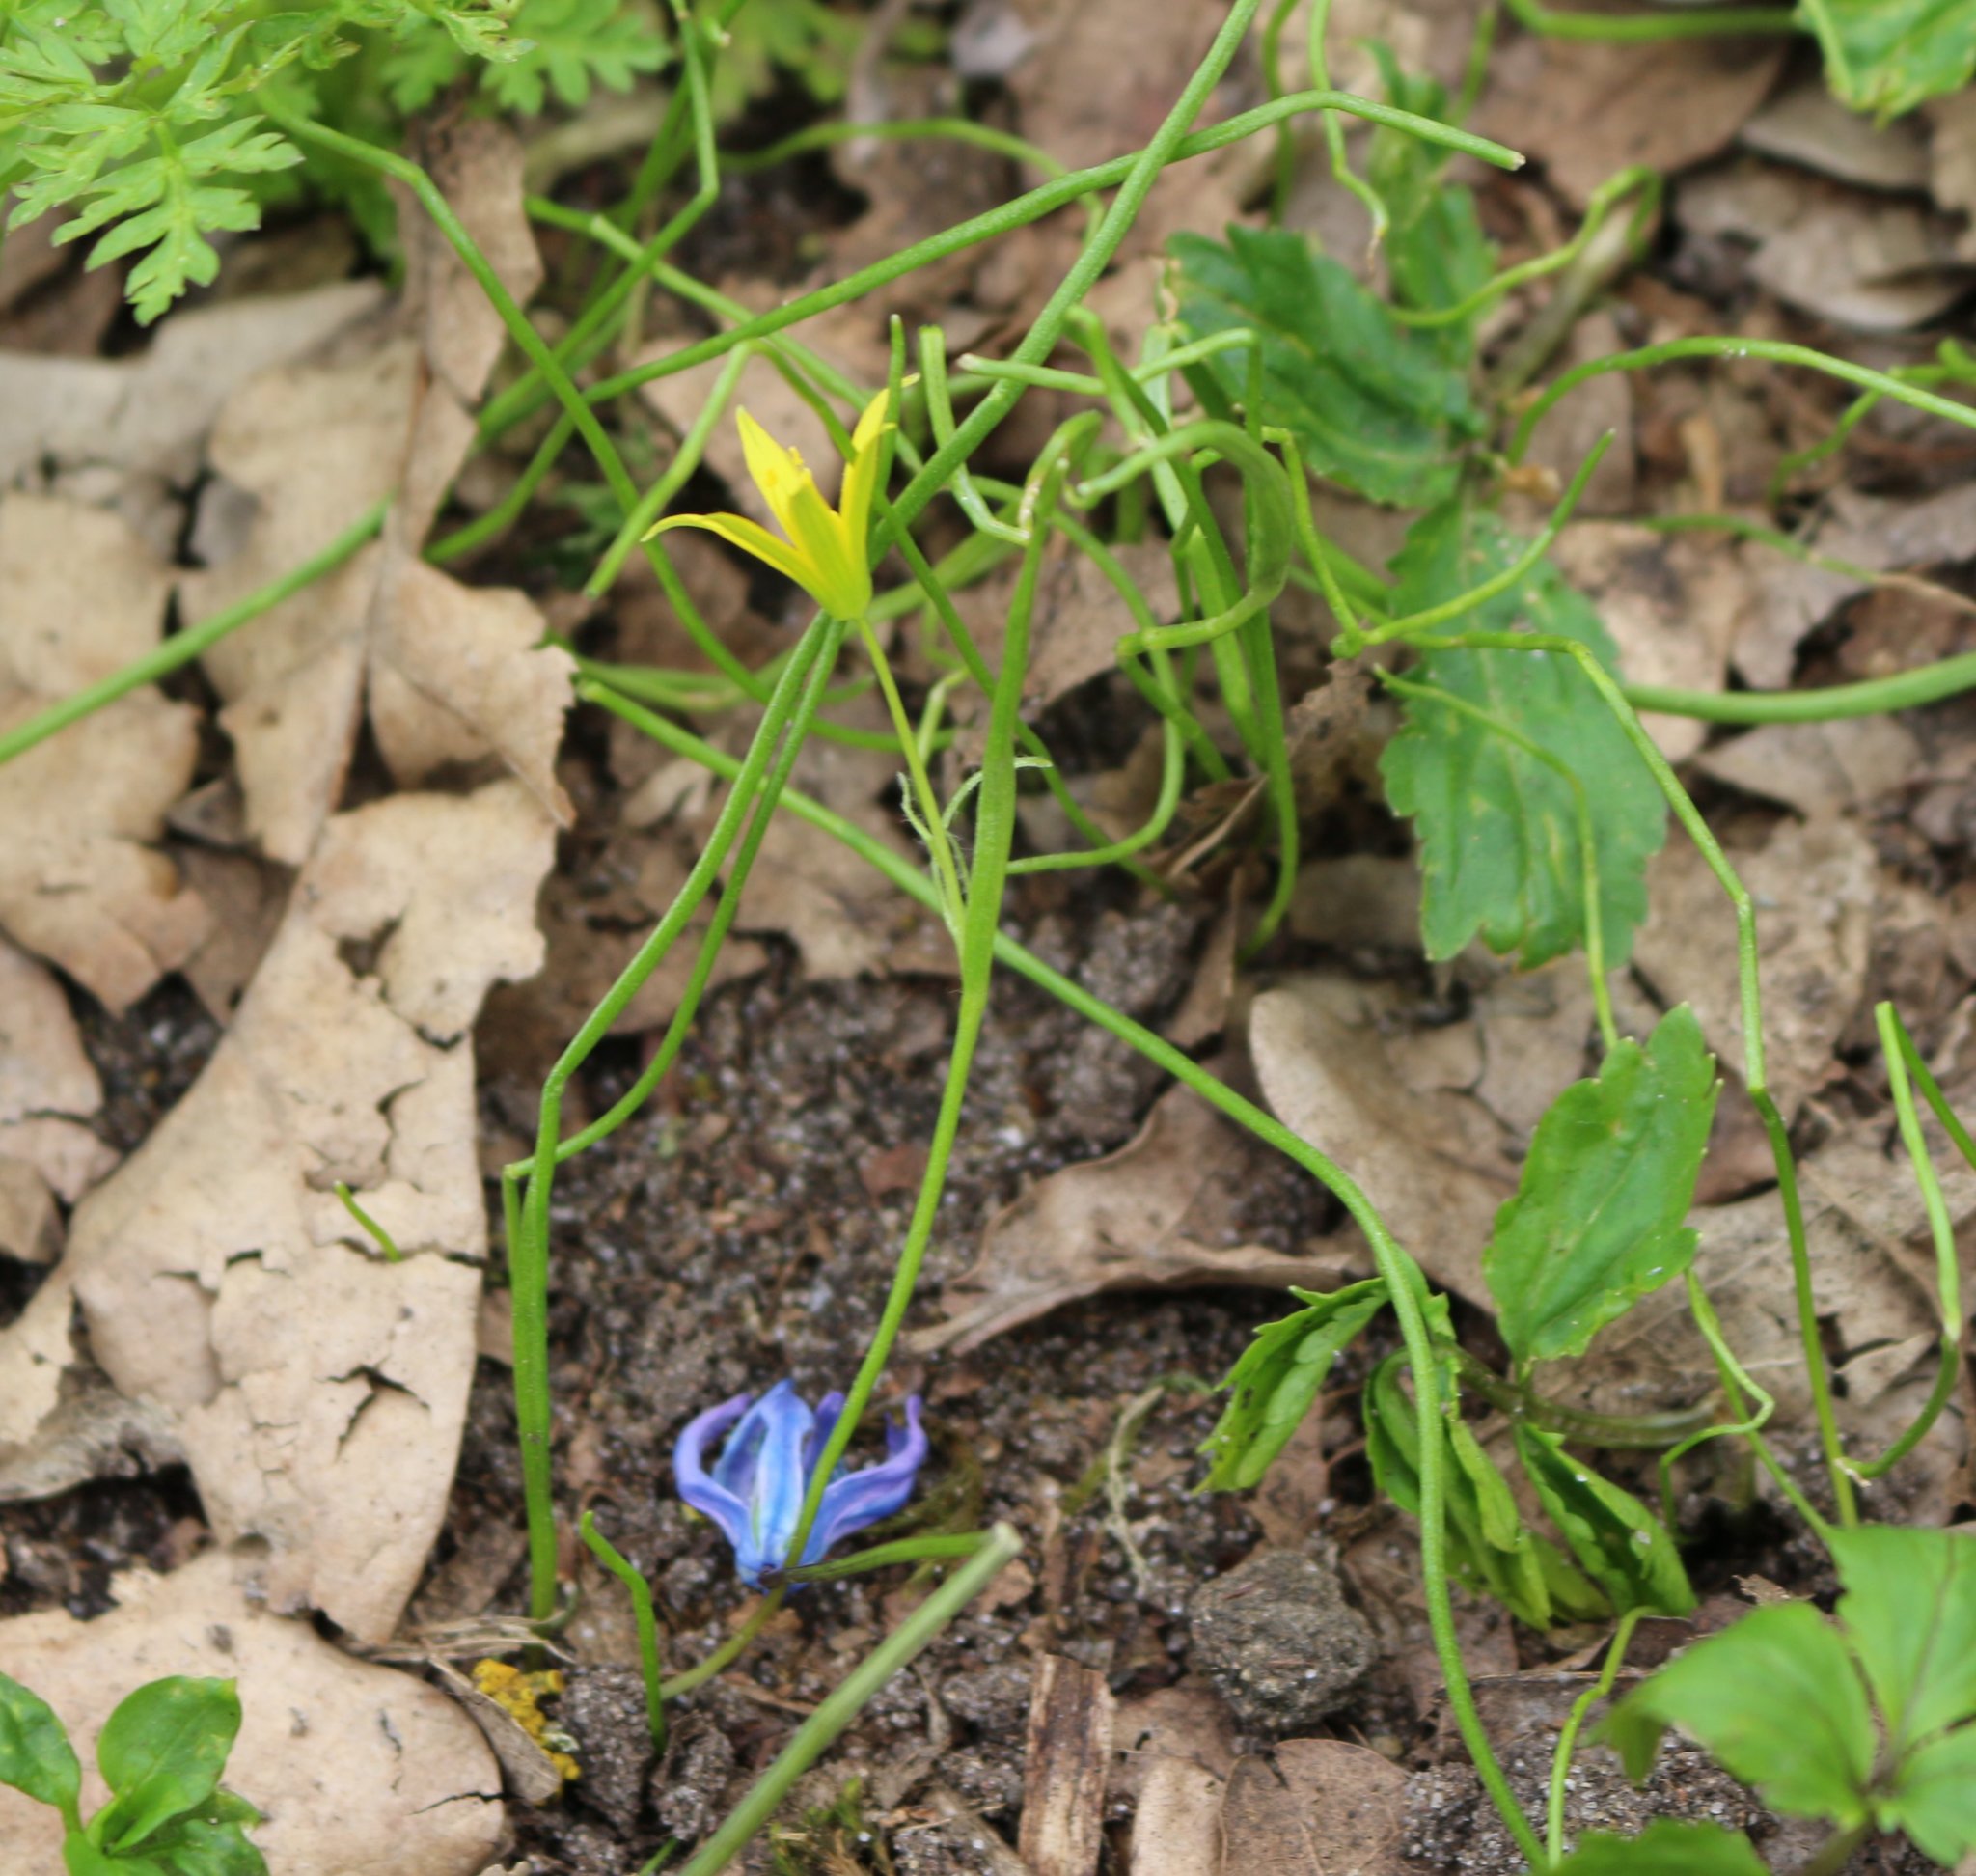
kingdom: Plantae
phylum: Tracheophyta
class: Liliopsida
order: Liliales
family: Liliaceae
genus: Gagea
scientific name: Gagea minima
